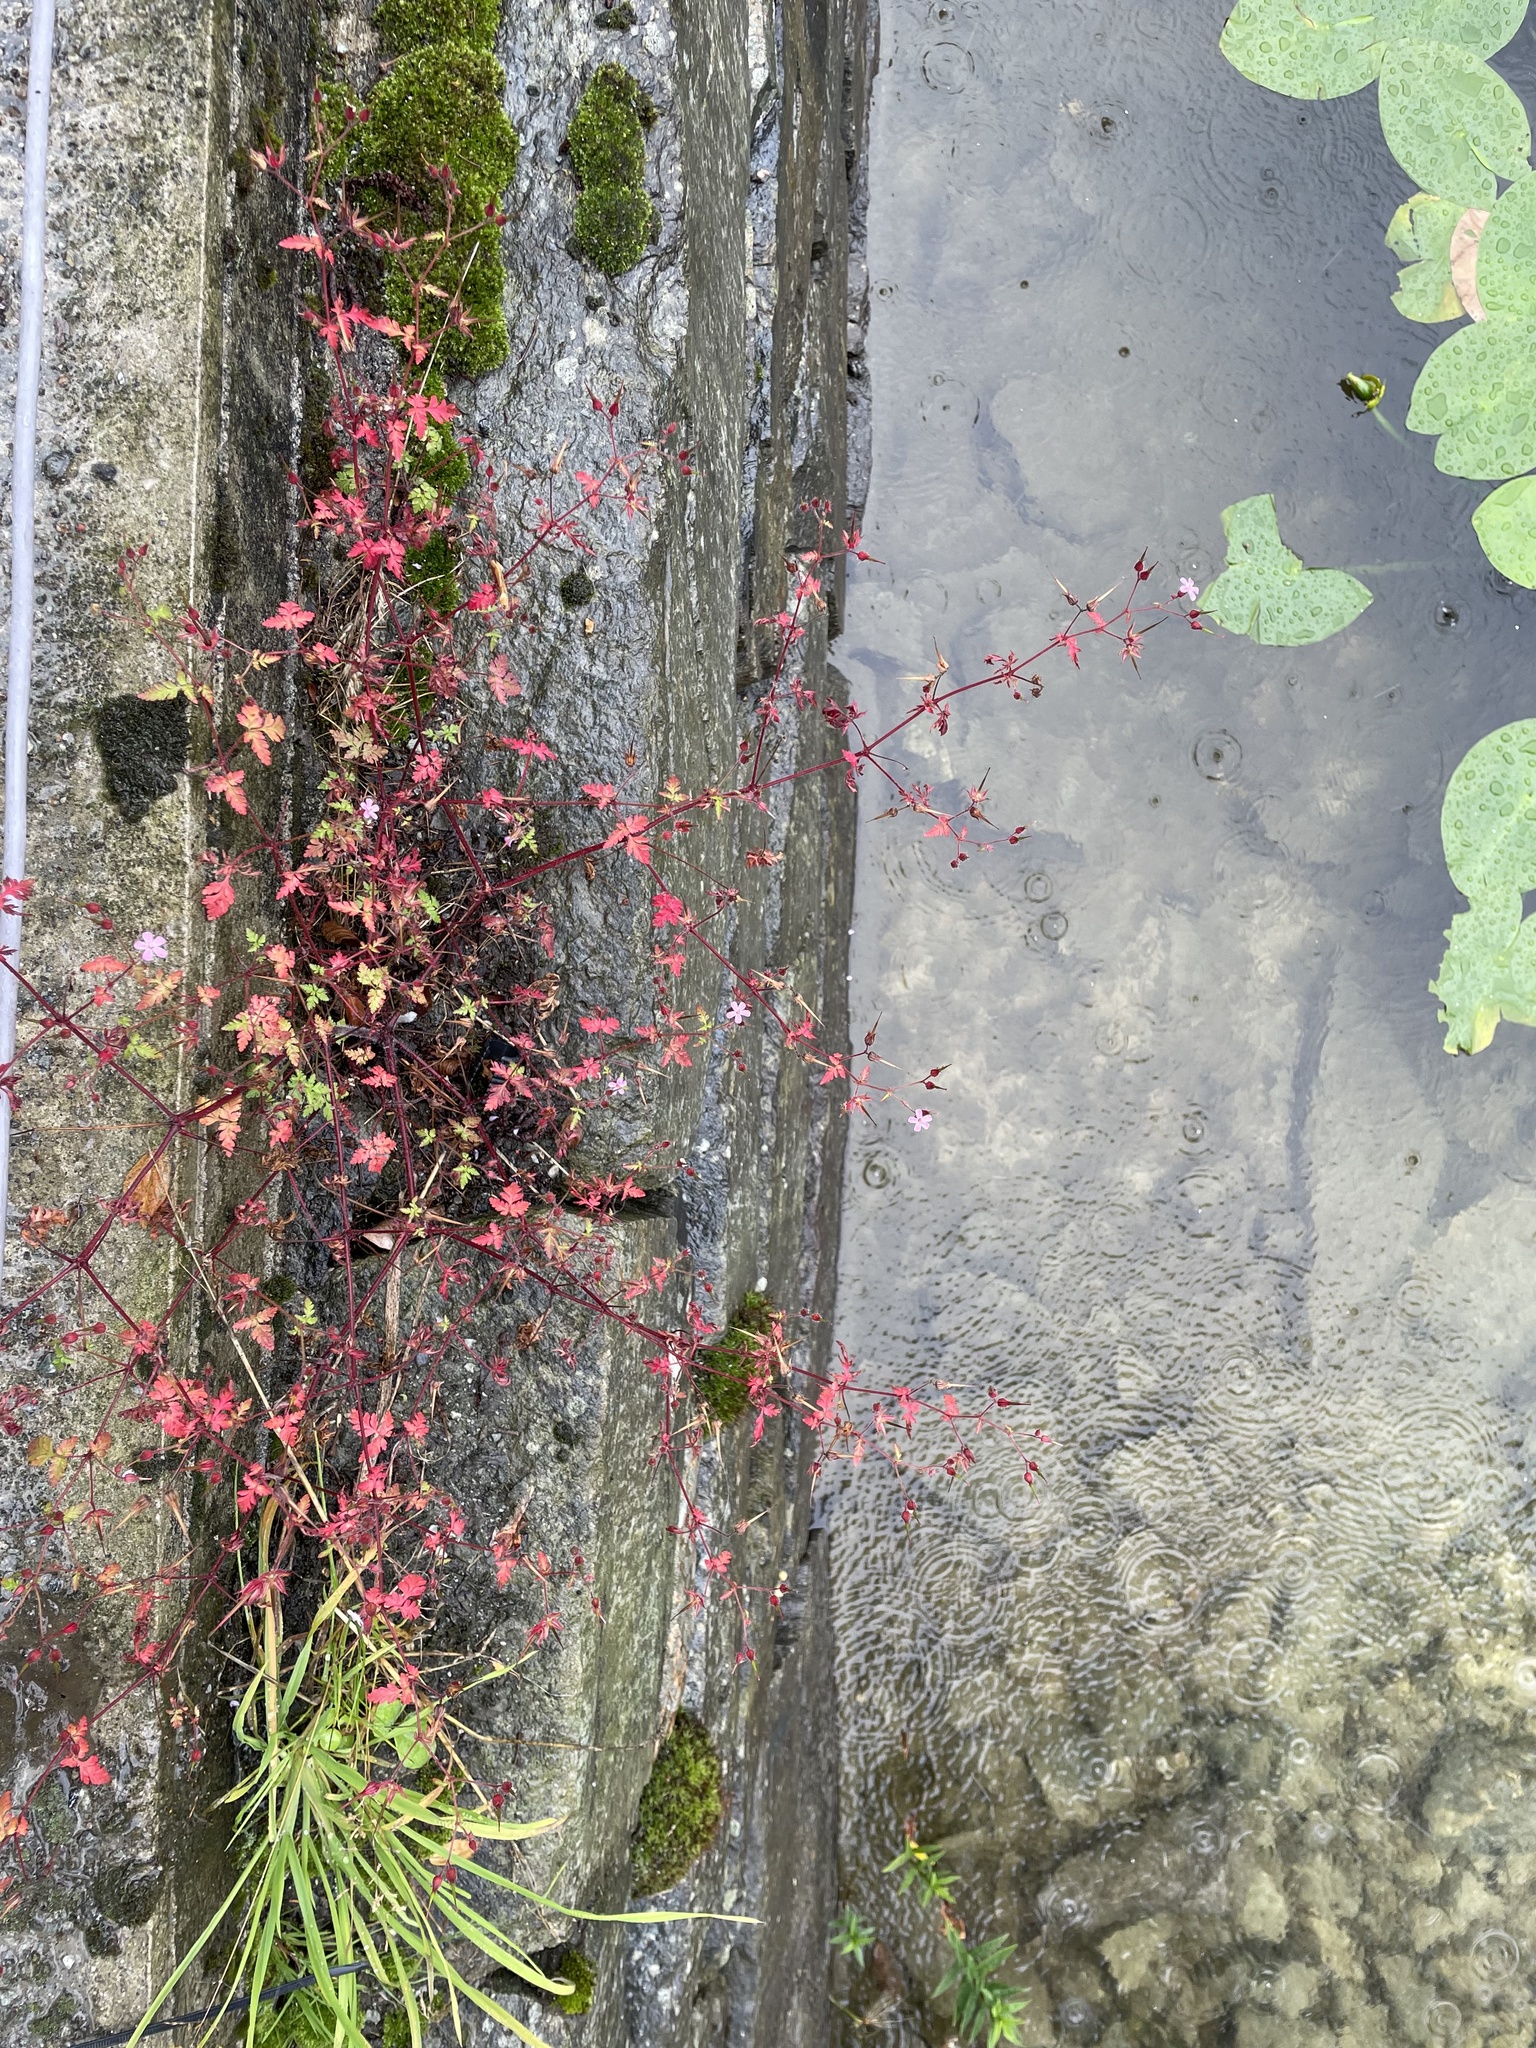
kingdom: Plantae
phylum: Tracheophyta
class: Magnoliopsida
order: Geraniales
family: Geraniaceae
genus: Geranium
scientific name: Geranium robertianum
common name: Herb-robert
